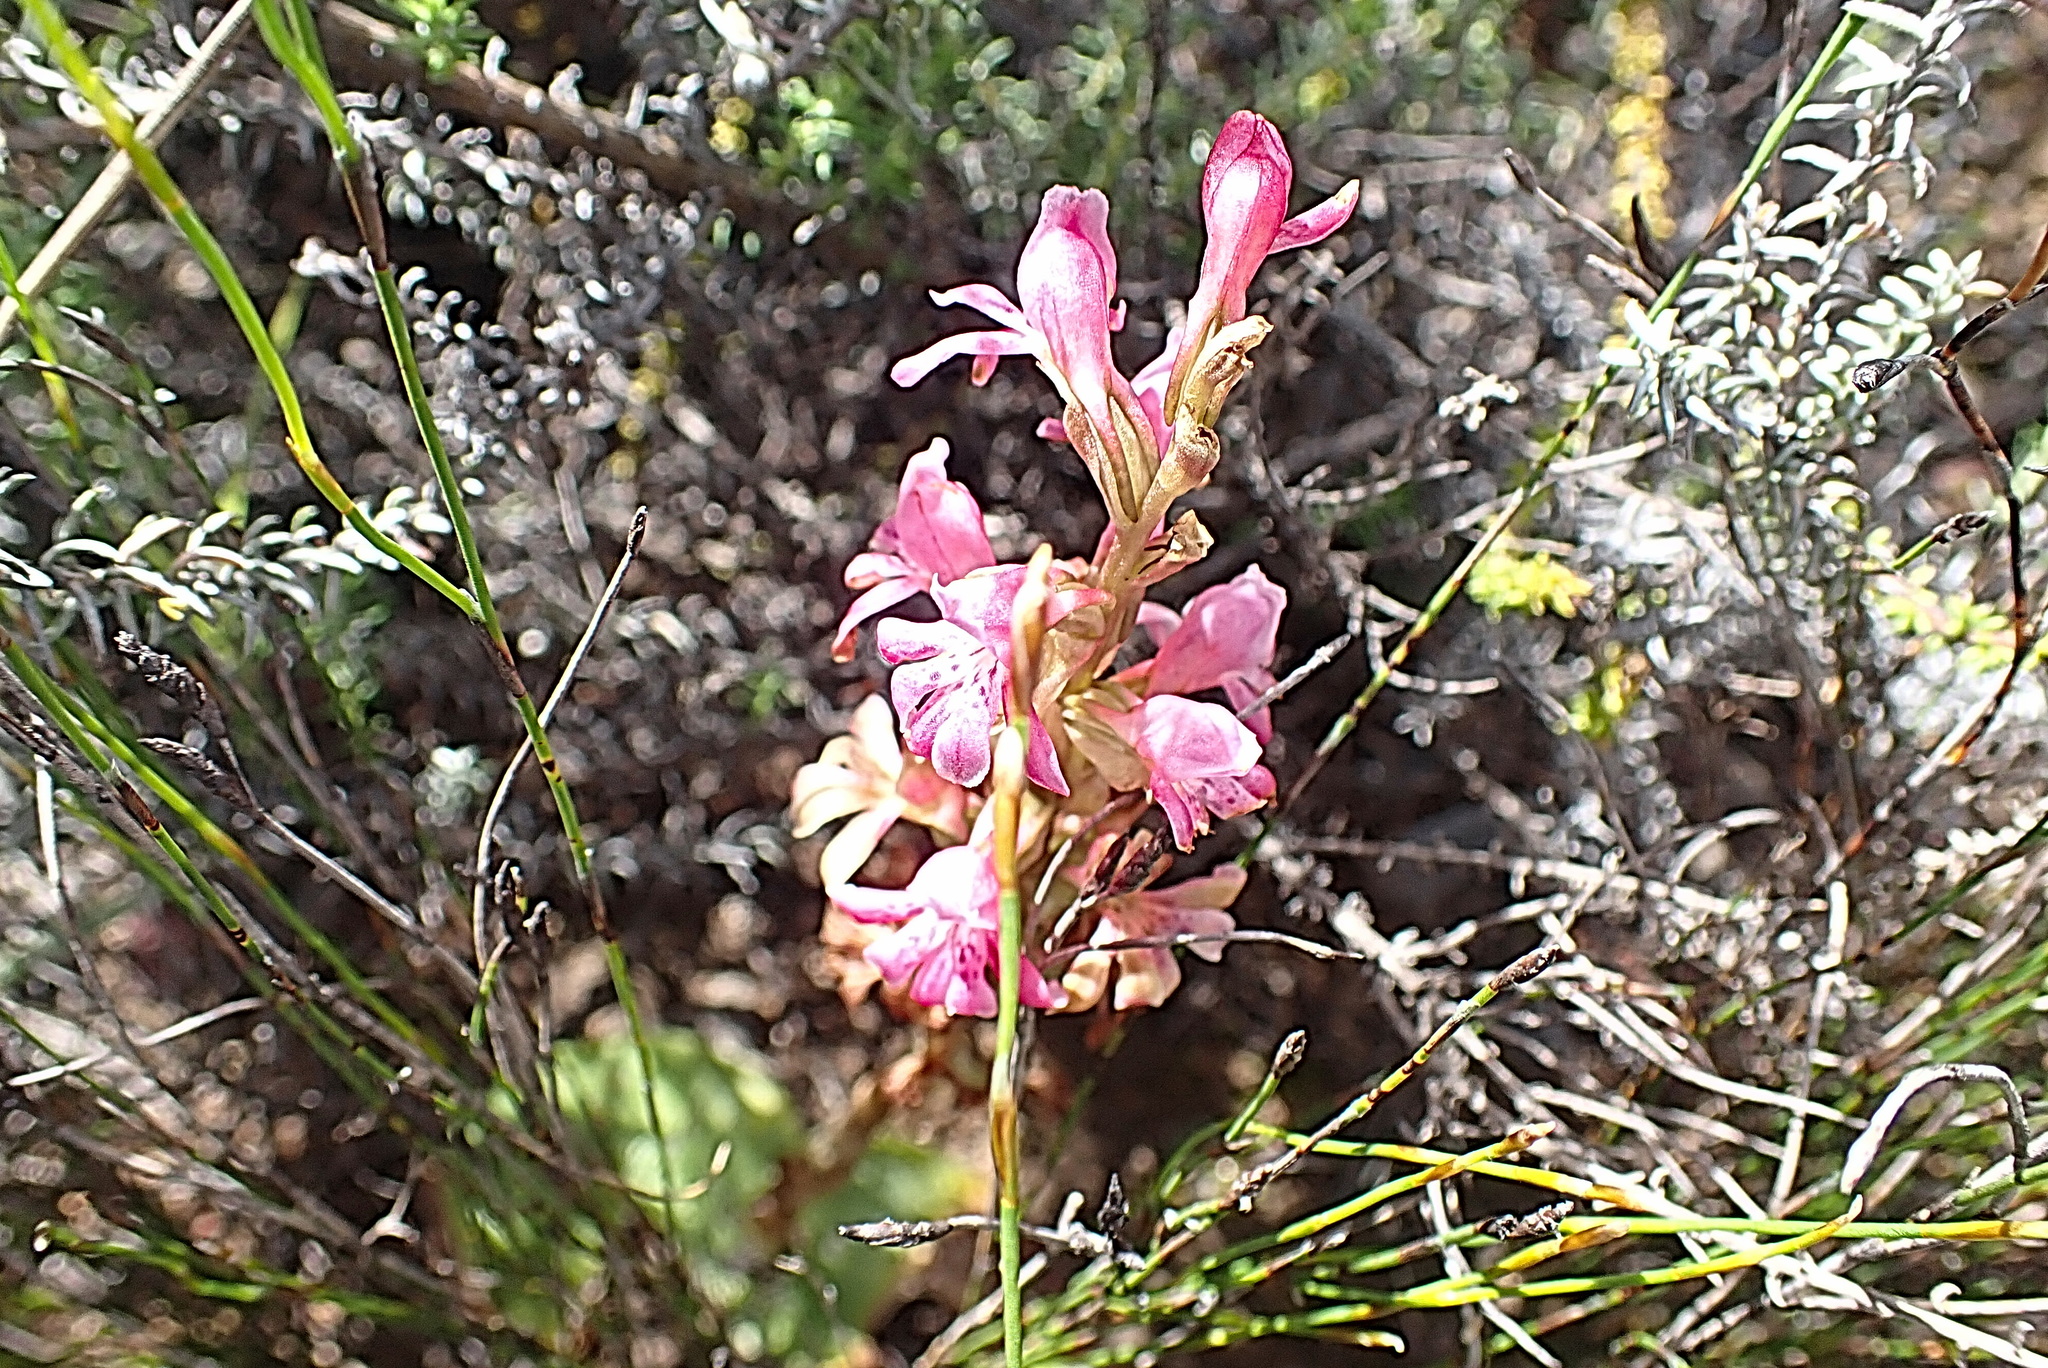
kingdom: Plantae
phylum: Tracheophyta
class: Liliopsida
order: Asparagales
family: Orchidaceae
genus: Satyrium
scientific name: Satyrium erectum
